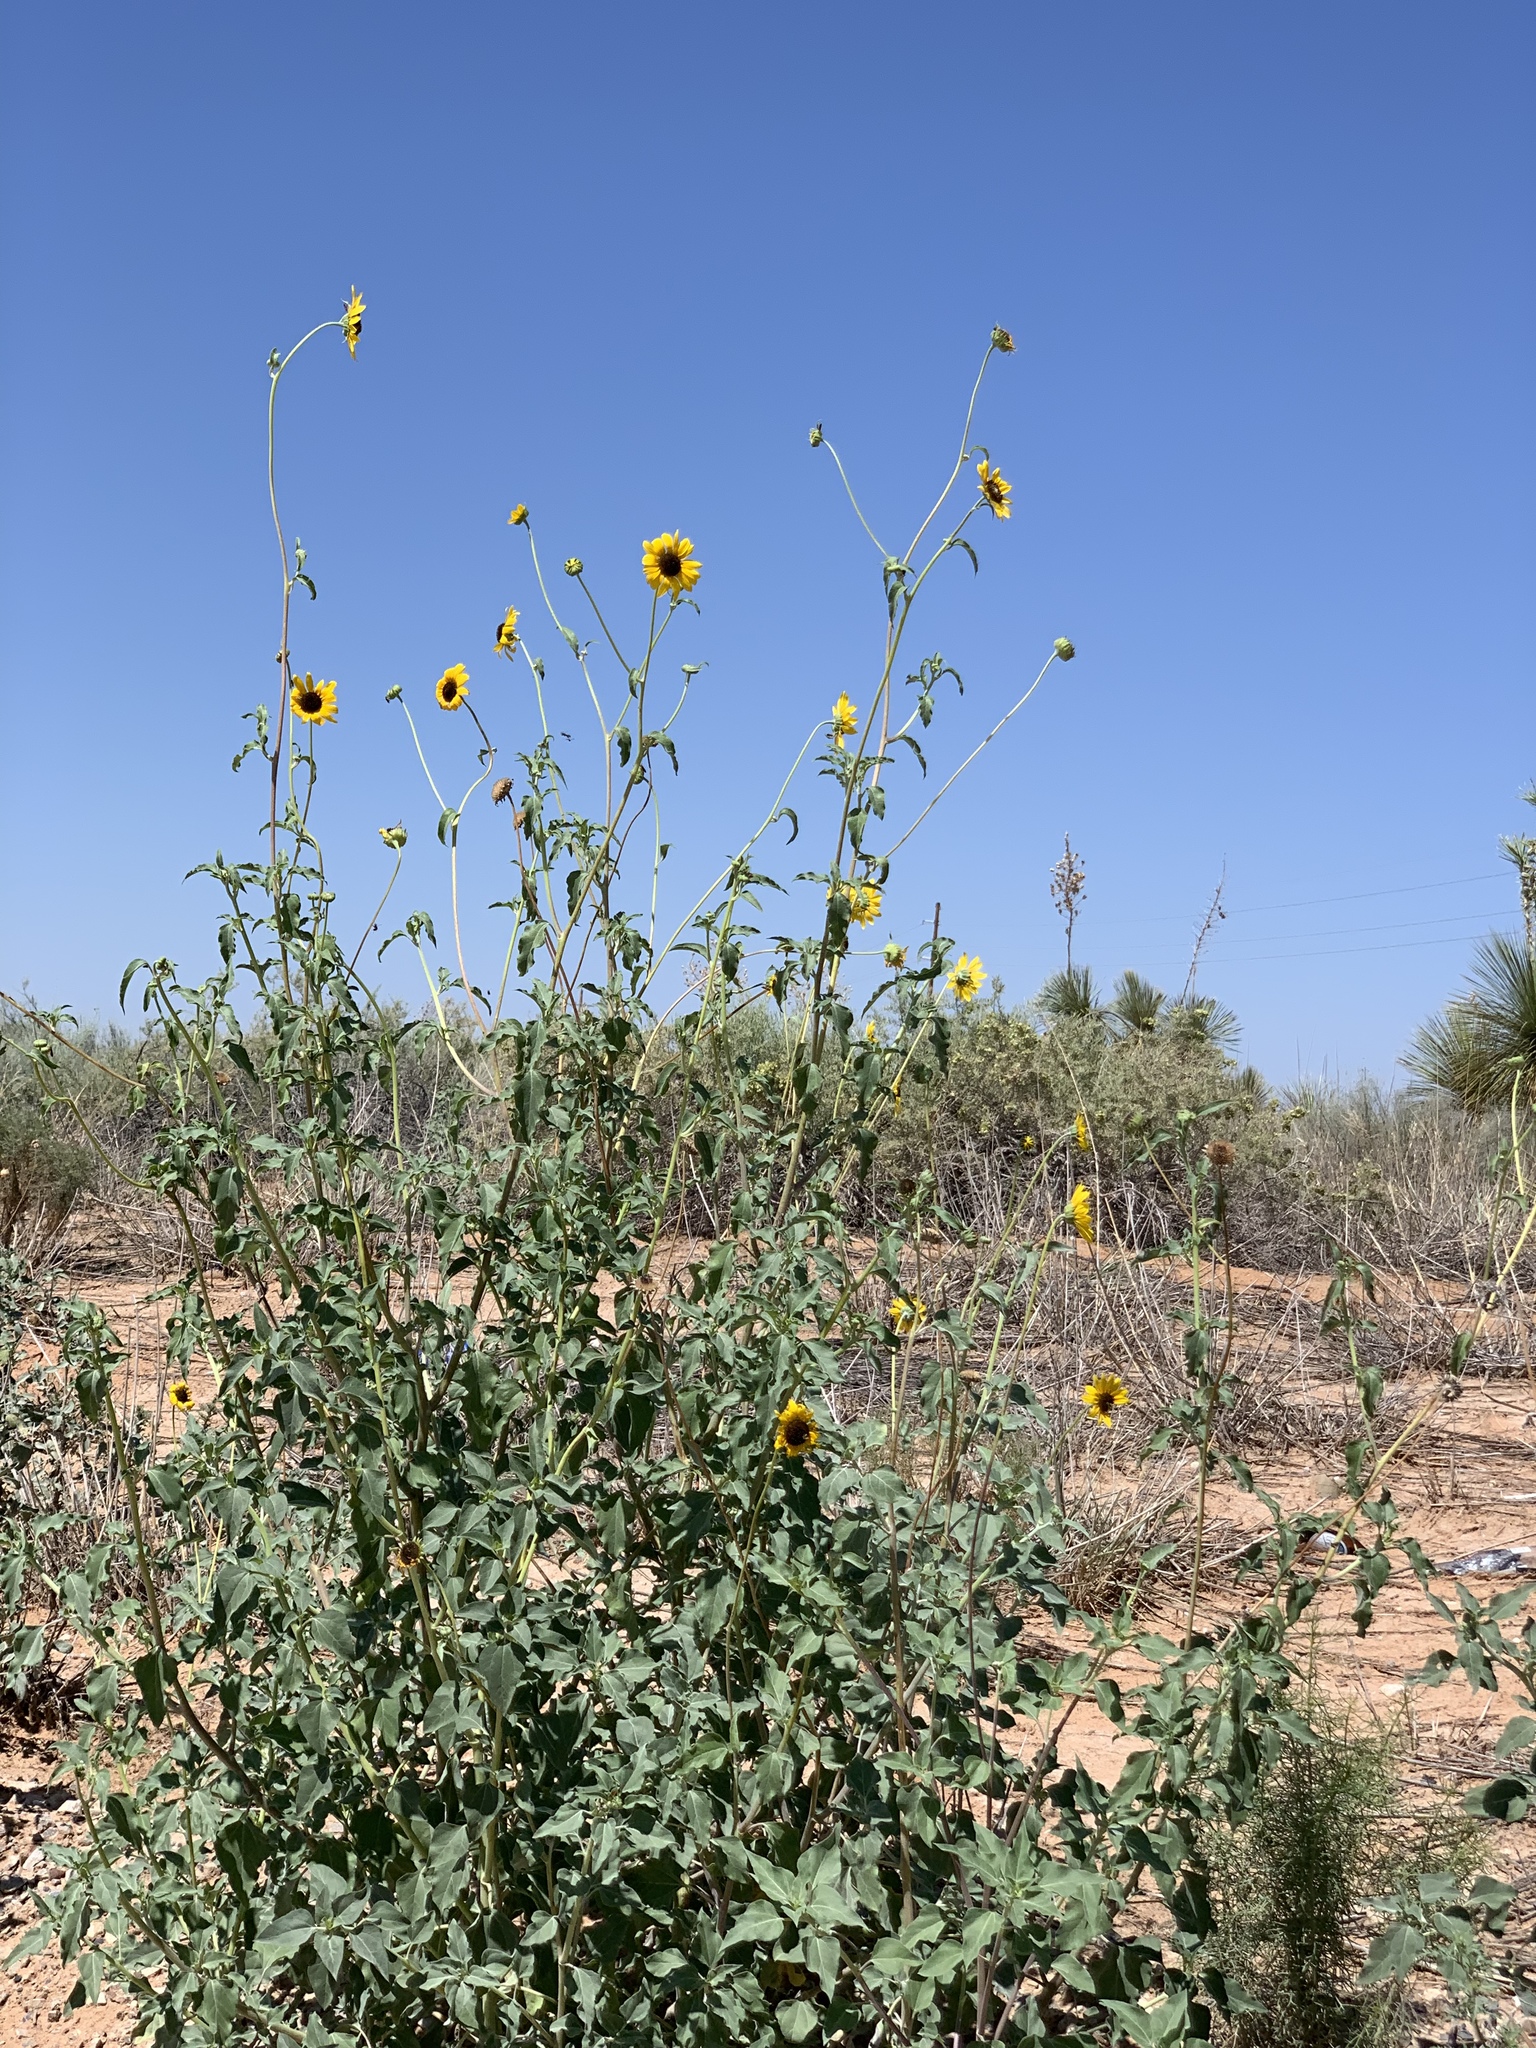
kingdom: Plantae
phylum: Tracheophyta
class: Magnoliopsida
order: Asterales
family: Asteraceae
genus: Helianthus
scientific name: Helianthus petiolaris
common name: Lesser sunflower
